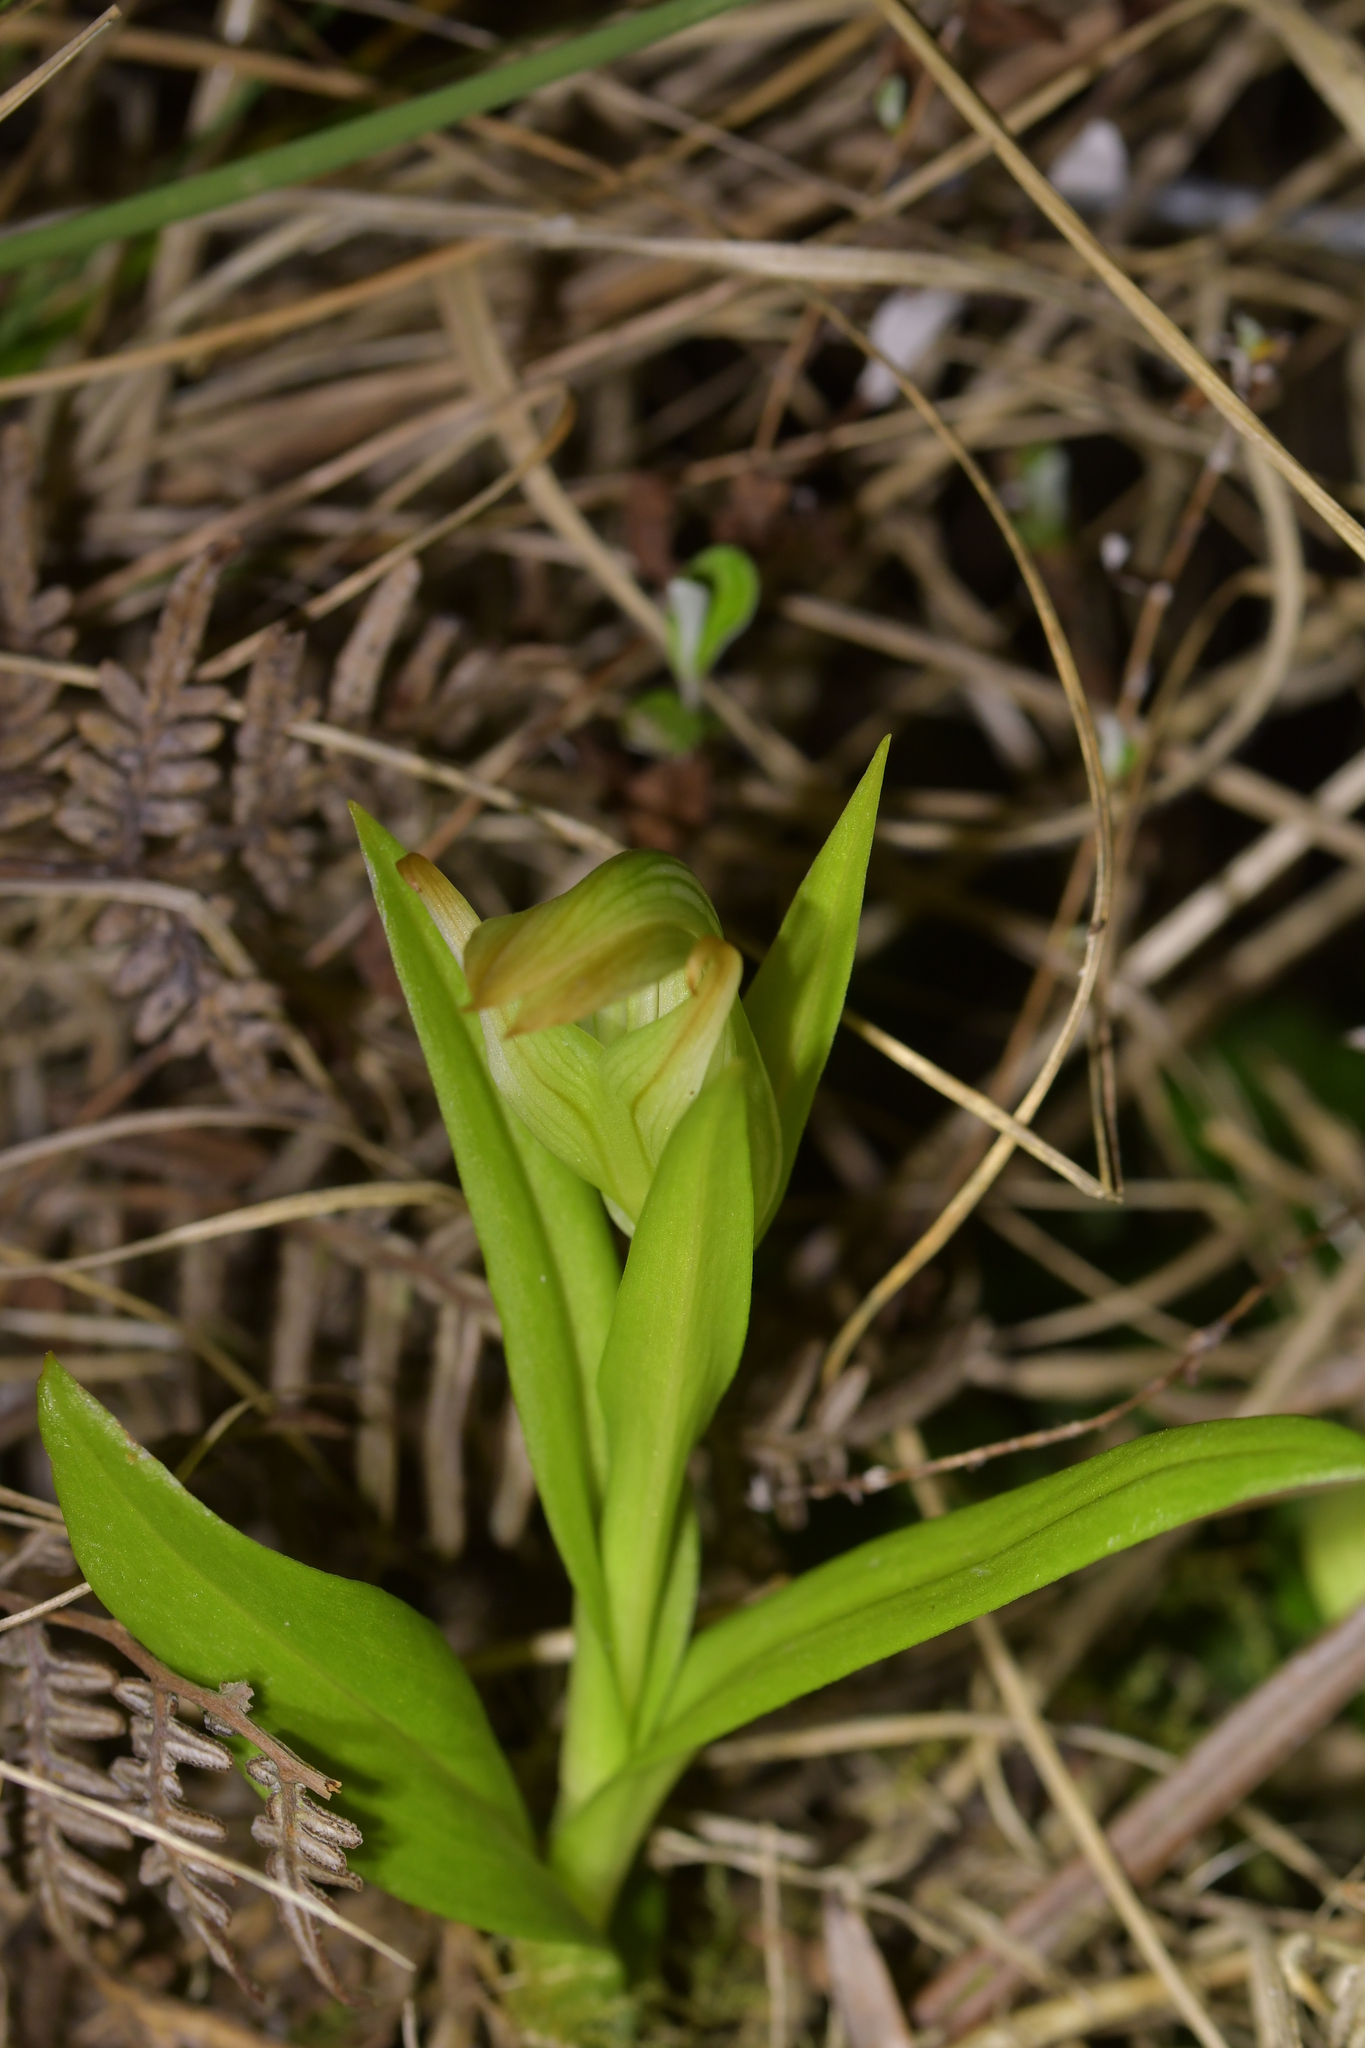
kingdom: Plantae
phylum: Tracheophyta
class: Liliopsida
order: Asparagales
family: Orchidaceae
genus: Pterostylis
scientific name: Pterostylis silvicultrix
